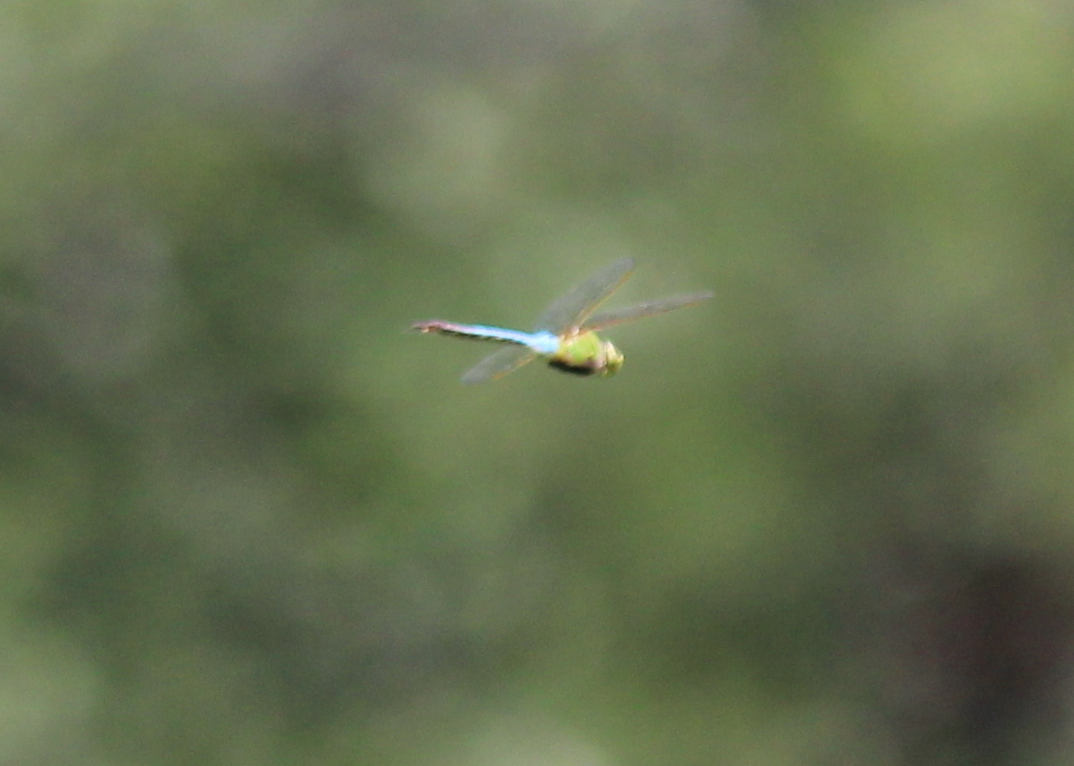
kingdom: Animalia
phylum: Arthropoda
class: Insecta
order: Odonata
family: Aeshnidae
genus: Anax
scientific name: Anax junius
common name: Common green darner
